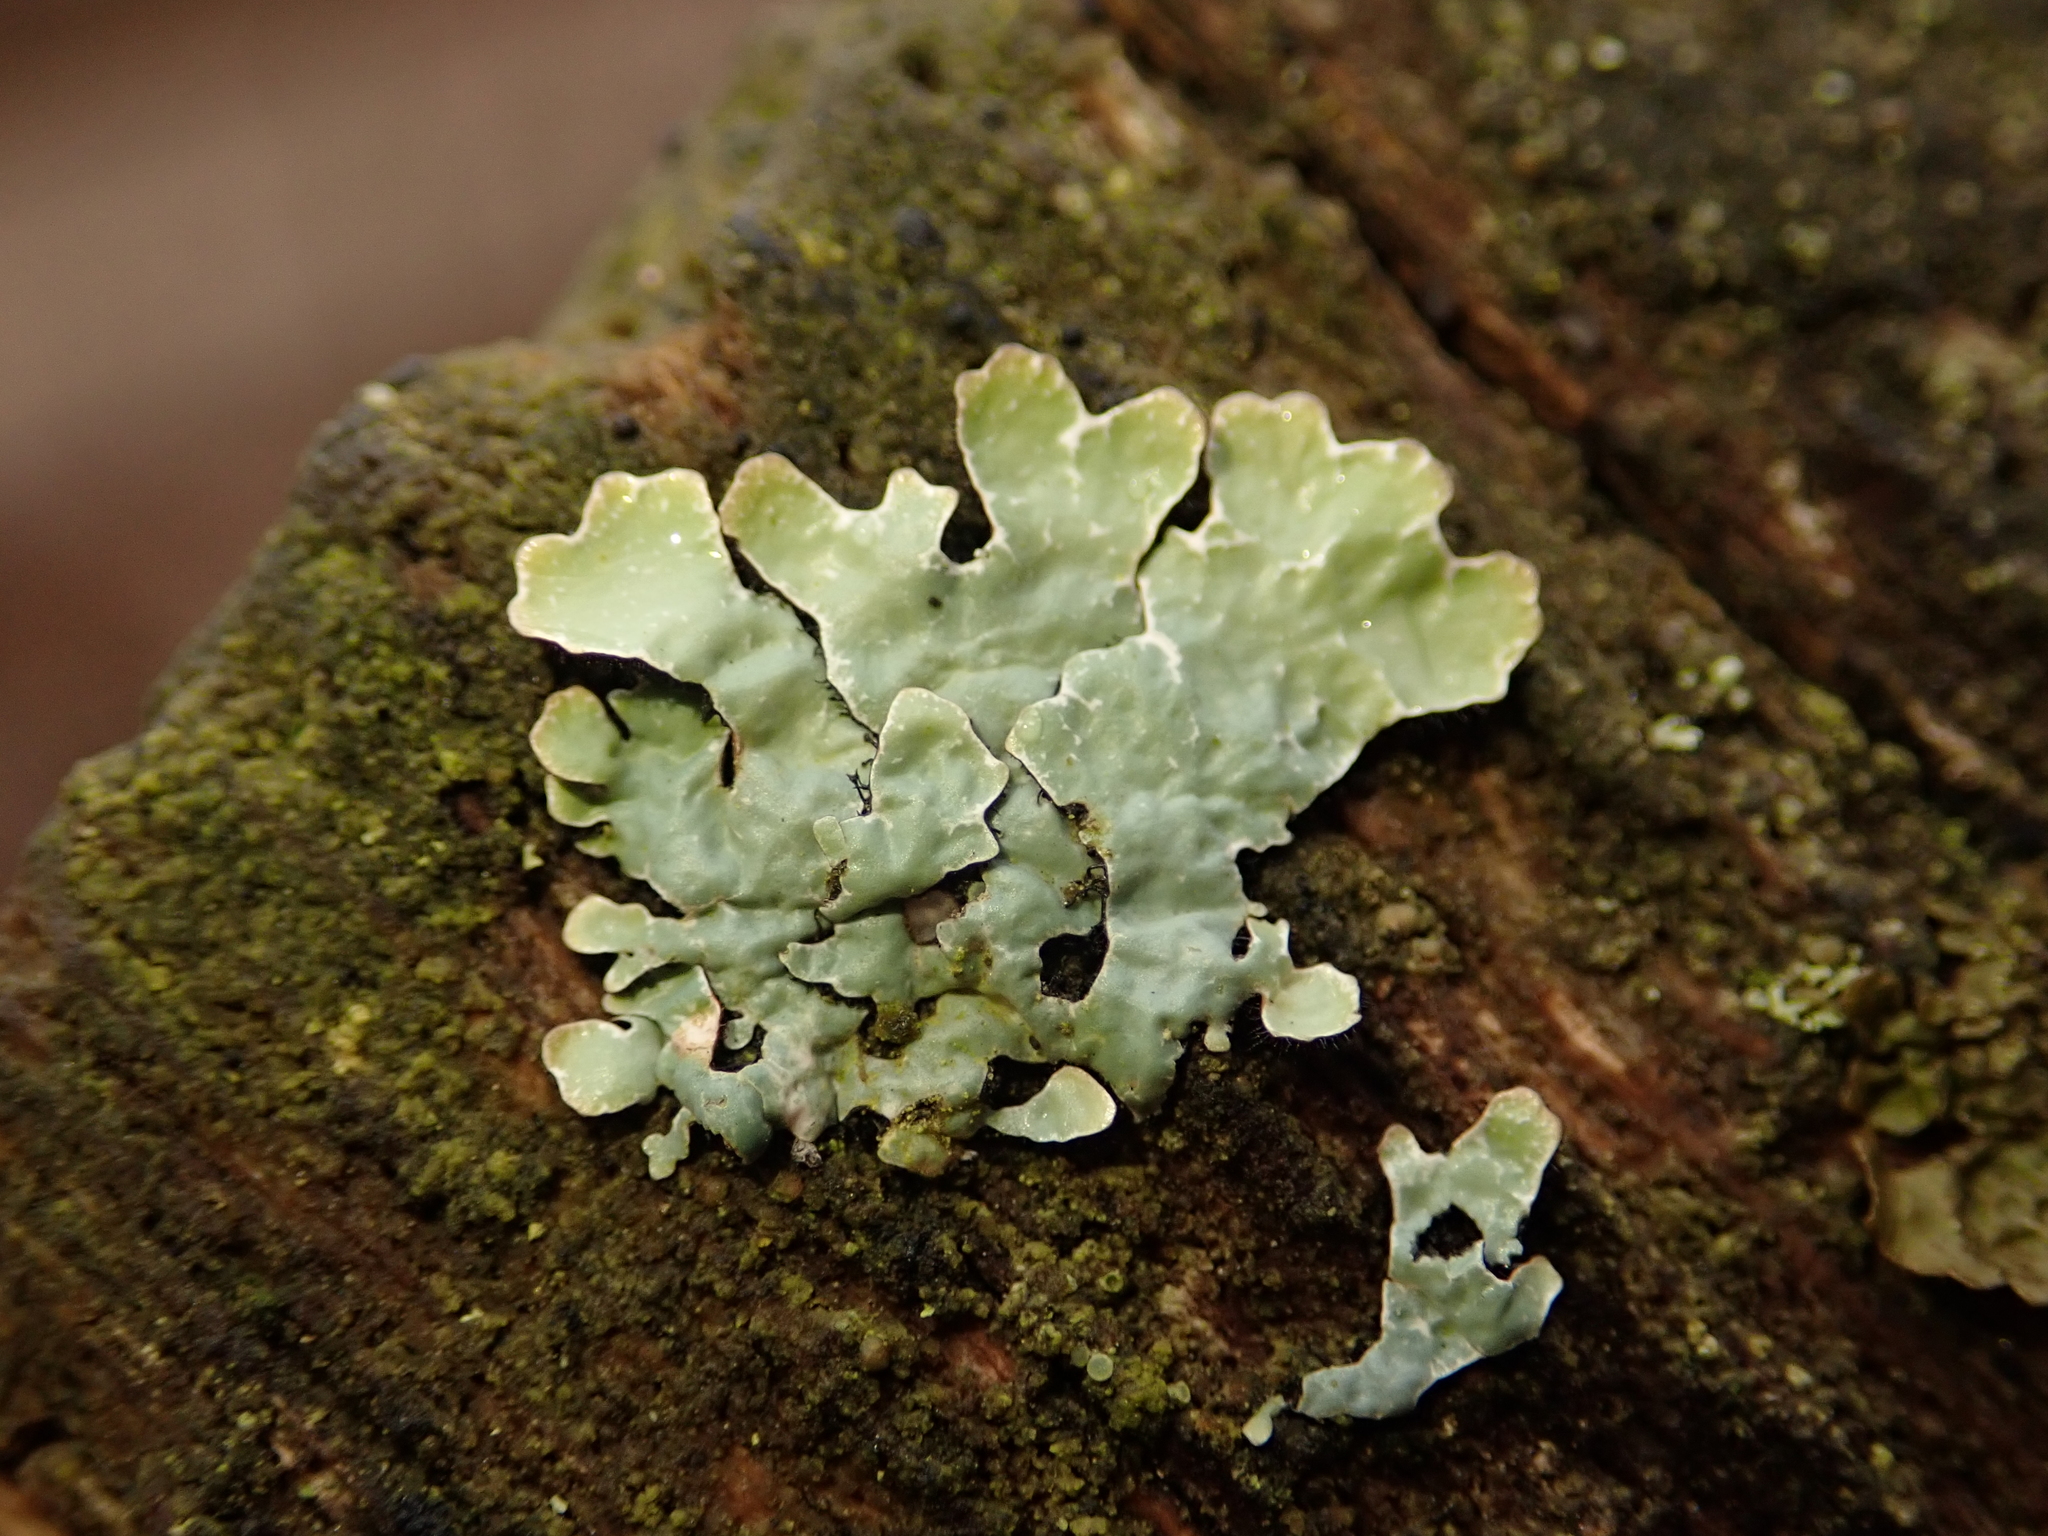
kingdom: Fungi
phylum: Ascomycota
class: Lecanoromycetes
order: Lecanorales
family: Parmeliaceae
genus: Parmelia
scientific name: Parmelia sulcata
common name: Netted shield lichen
